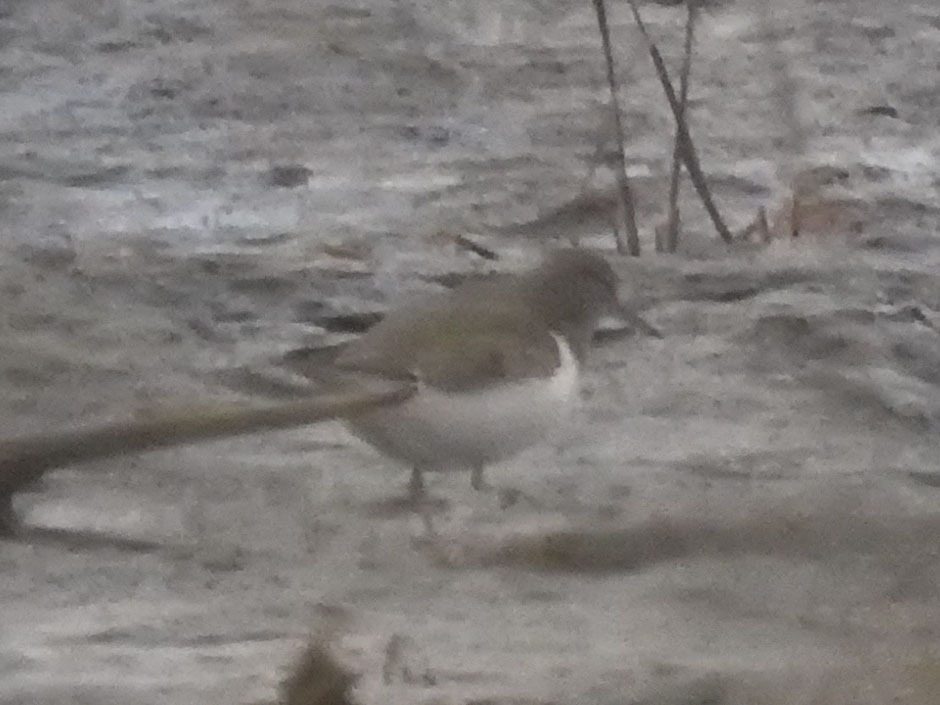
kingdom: Animalia
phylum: Chordata
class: Aves
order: Charadriiformes
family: Scolopacidae
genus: Actitis
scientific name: Actitis macularius
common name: Spotted sandpiper
